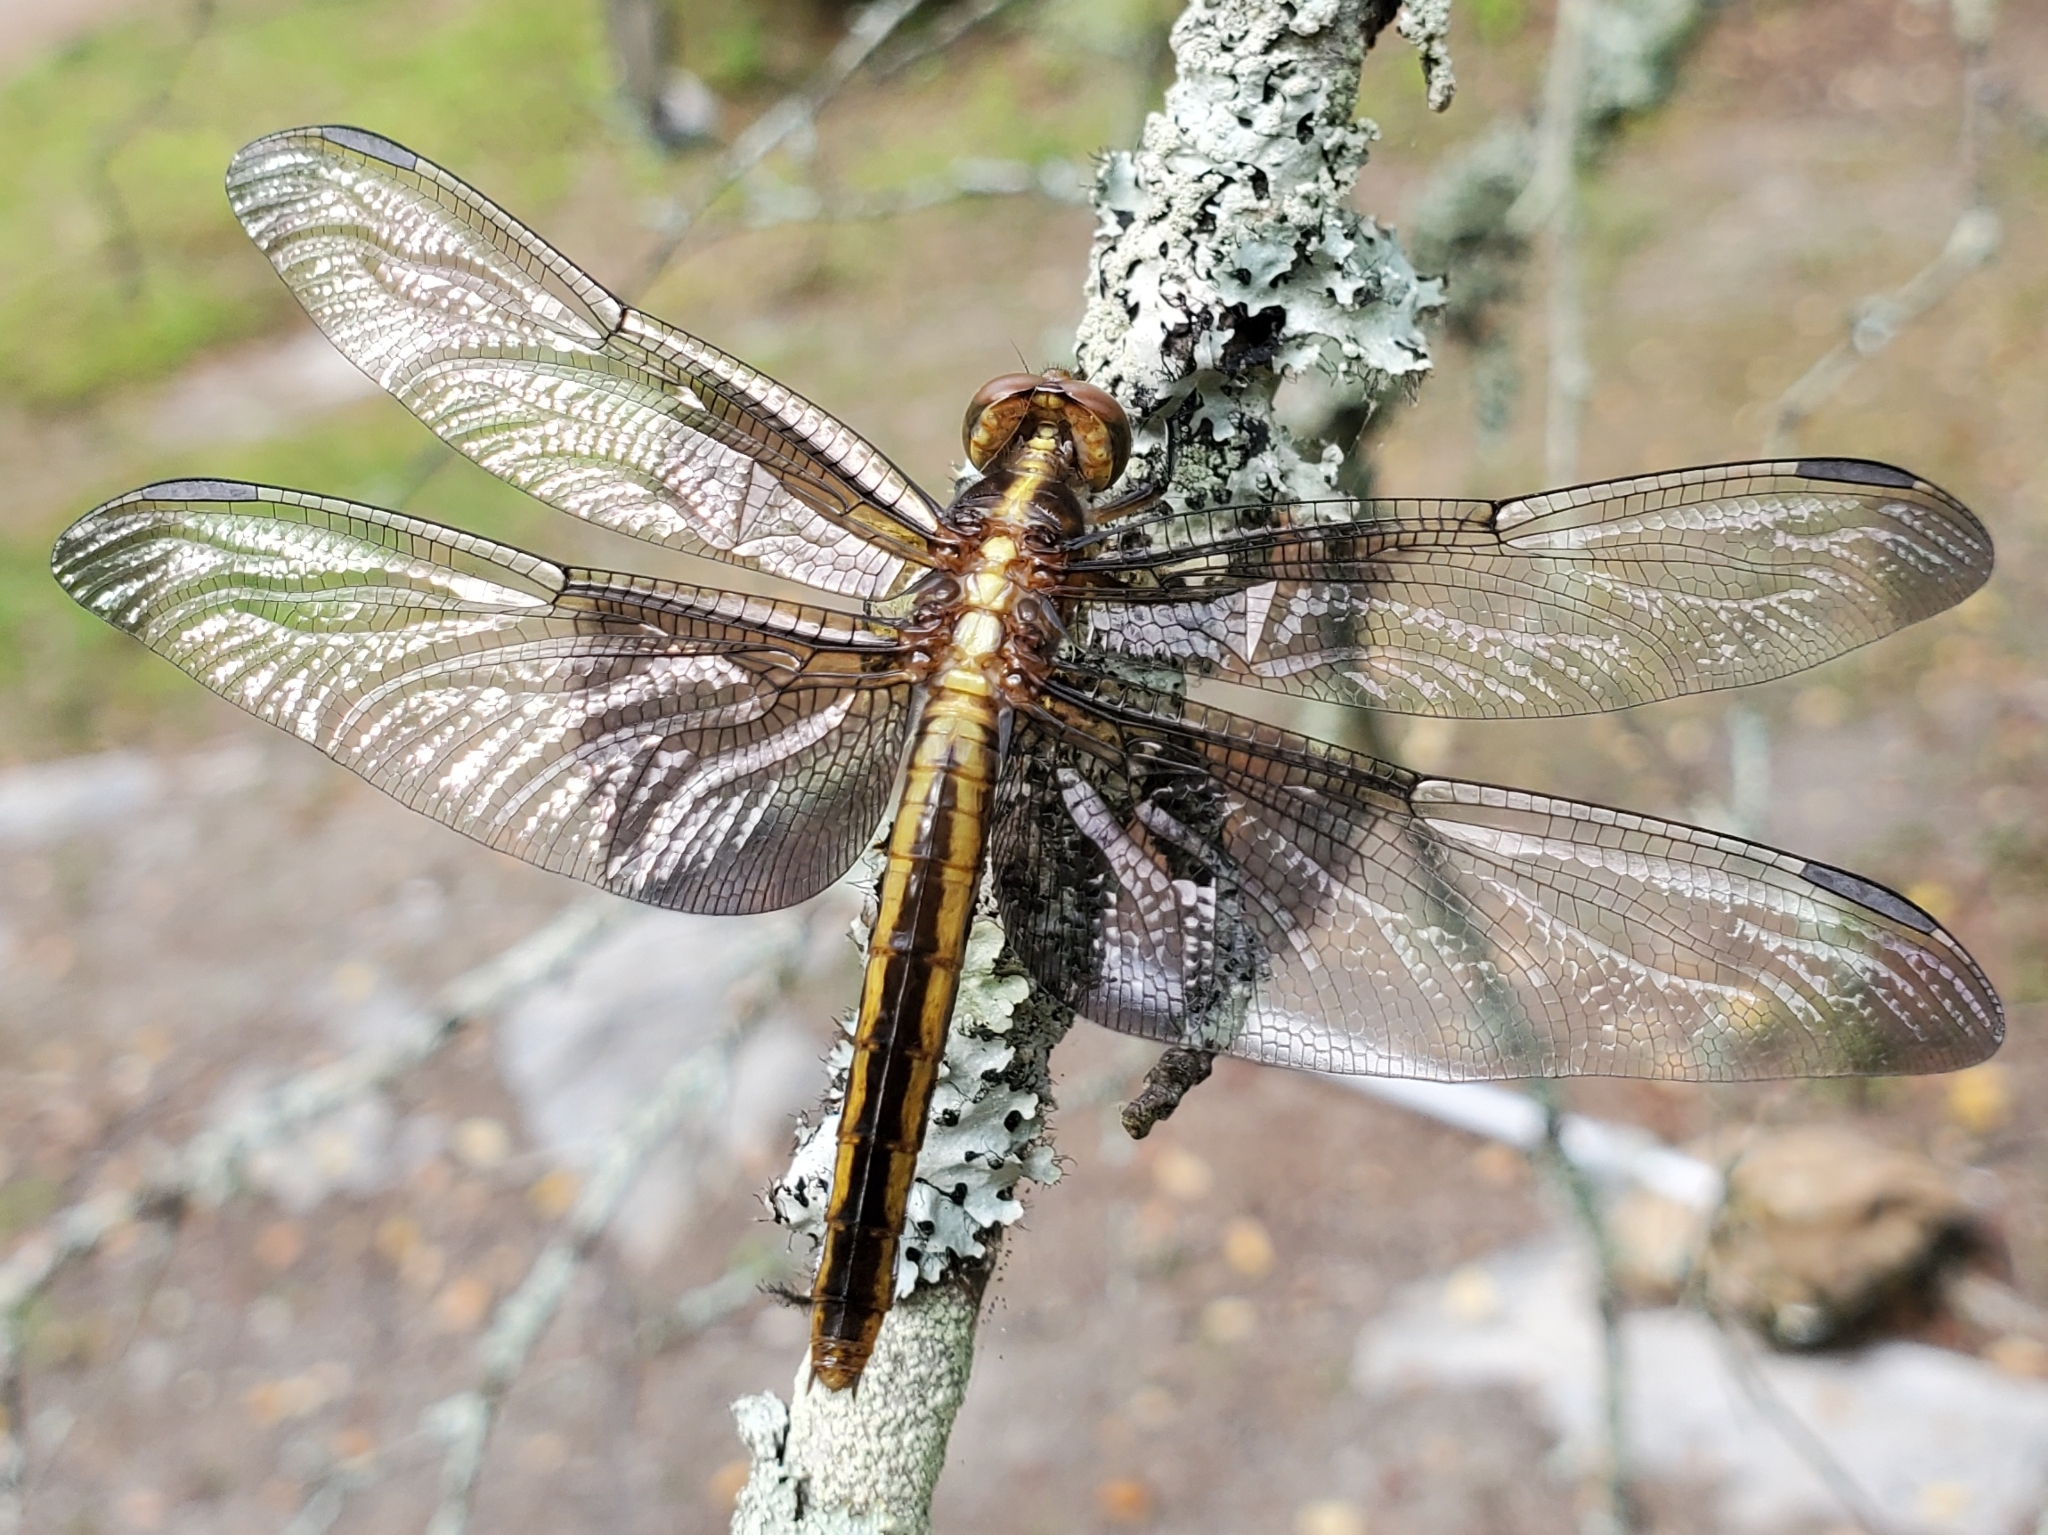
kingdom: Animalia
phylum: Arthropoda
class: Insecta
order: Odonata
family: Libellulidae
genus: Libellula
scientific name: Libellula luctuosa
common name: Widow skimmer
